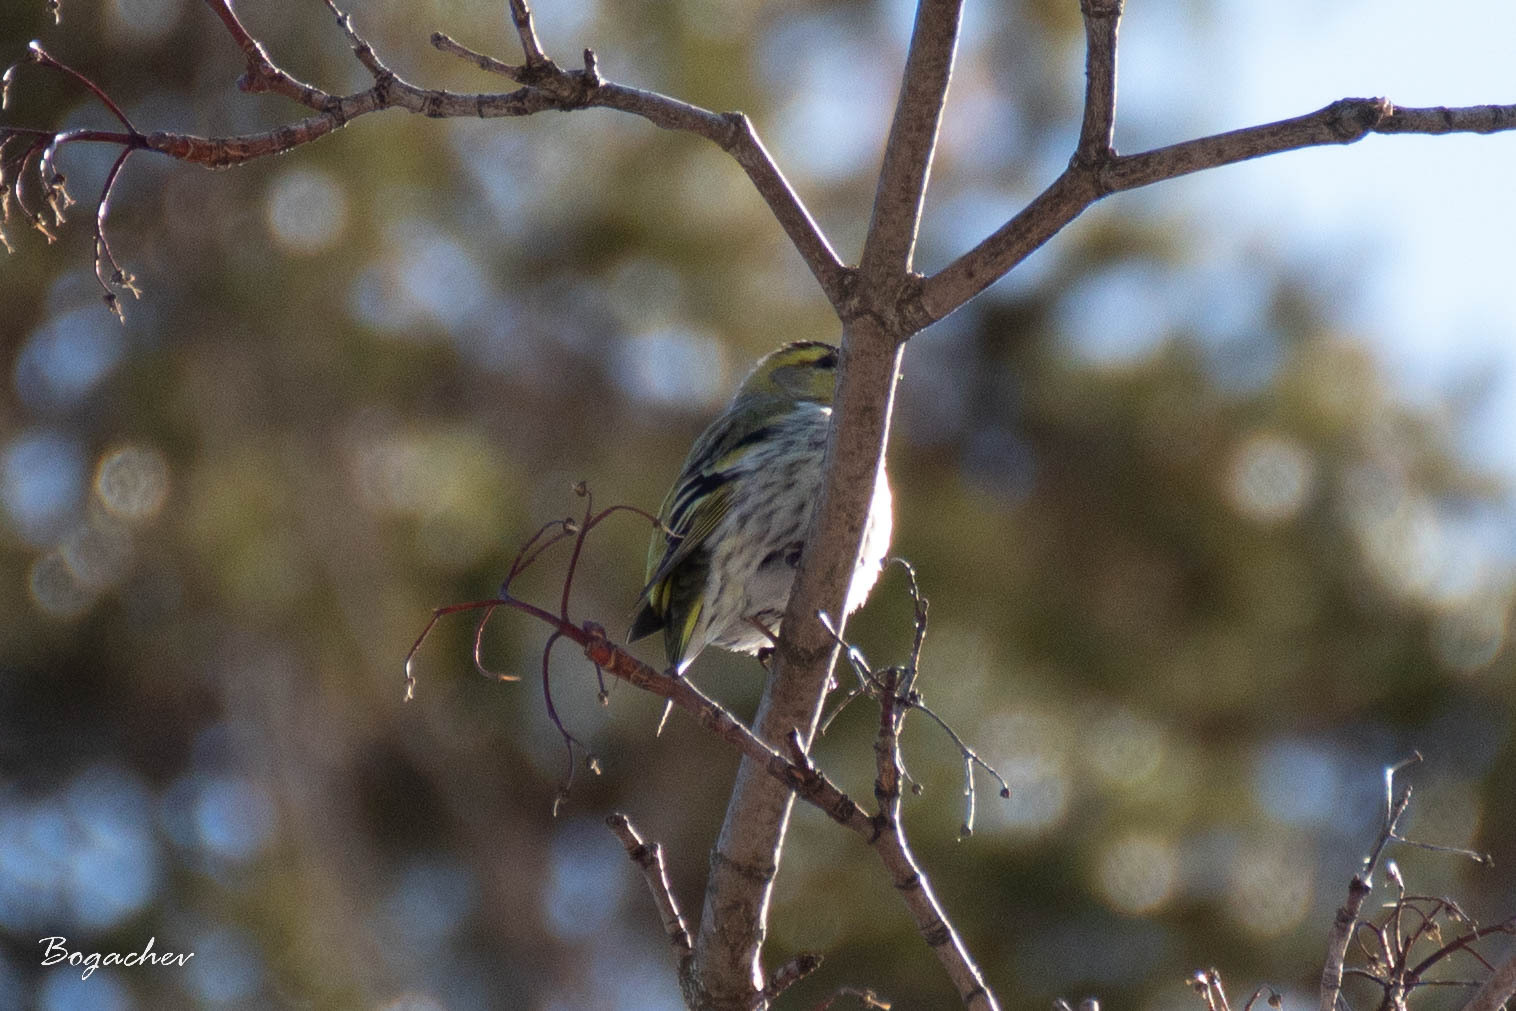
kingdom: Animalia
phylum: Chordata
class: Aves
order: Passeriformes
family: Fringillidae
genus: Spinus
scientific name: Spinus spinus
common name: Eurasian siskin
